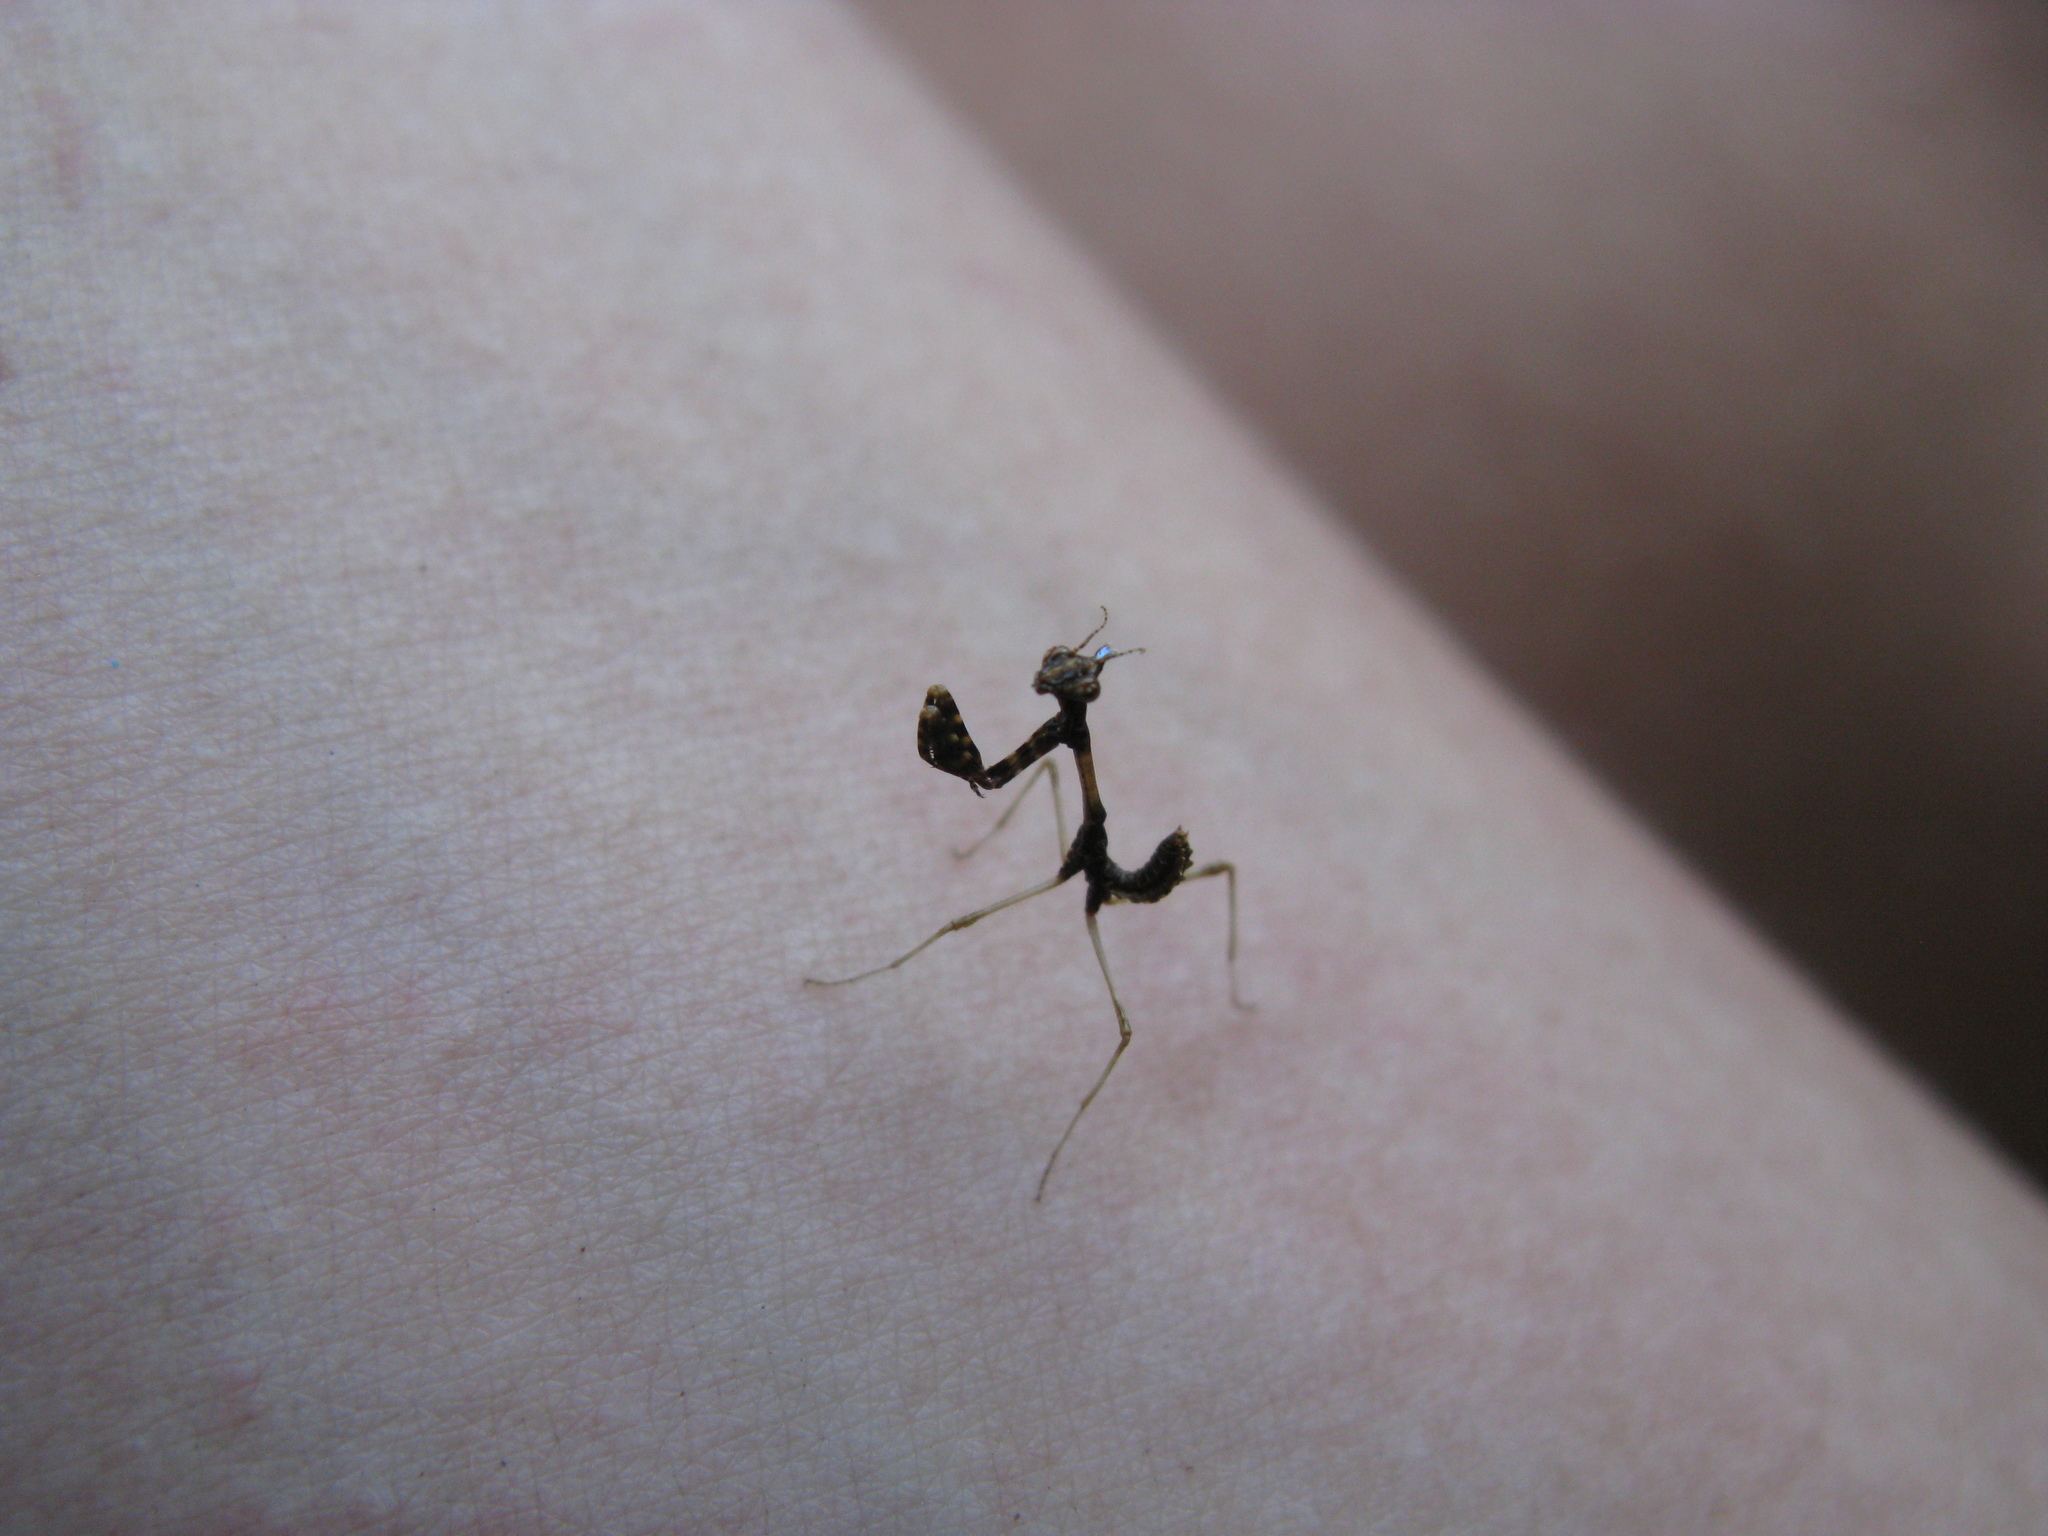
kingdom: Animalia
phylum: Arthropoda
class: Insecta
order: Mantodea
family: Empusidae
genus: Empusa
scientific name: Empusa fasciata
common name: Devil's mare
